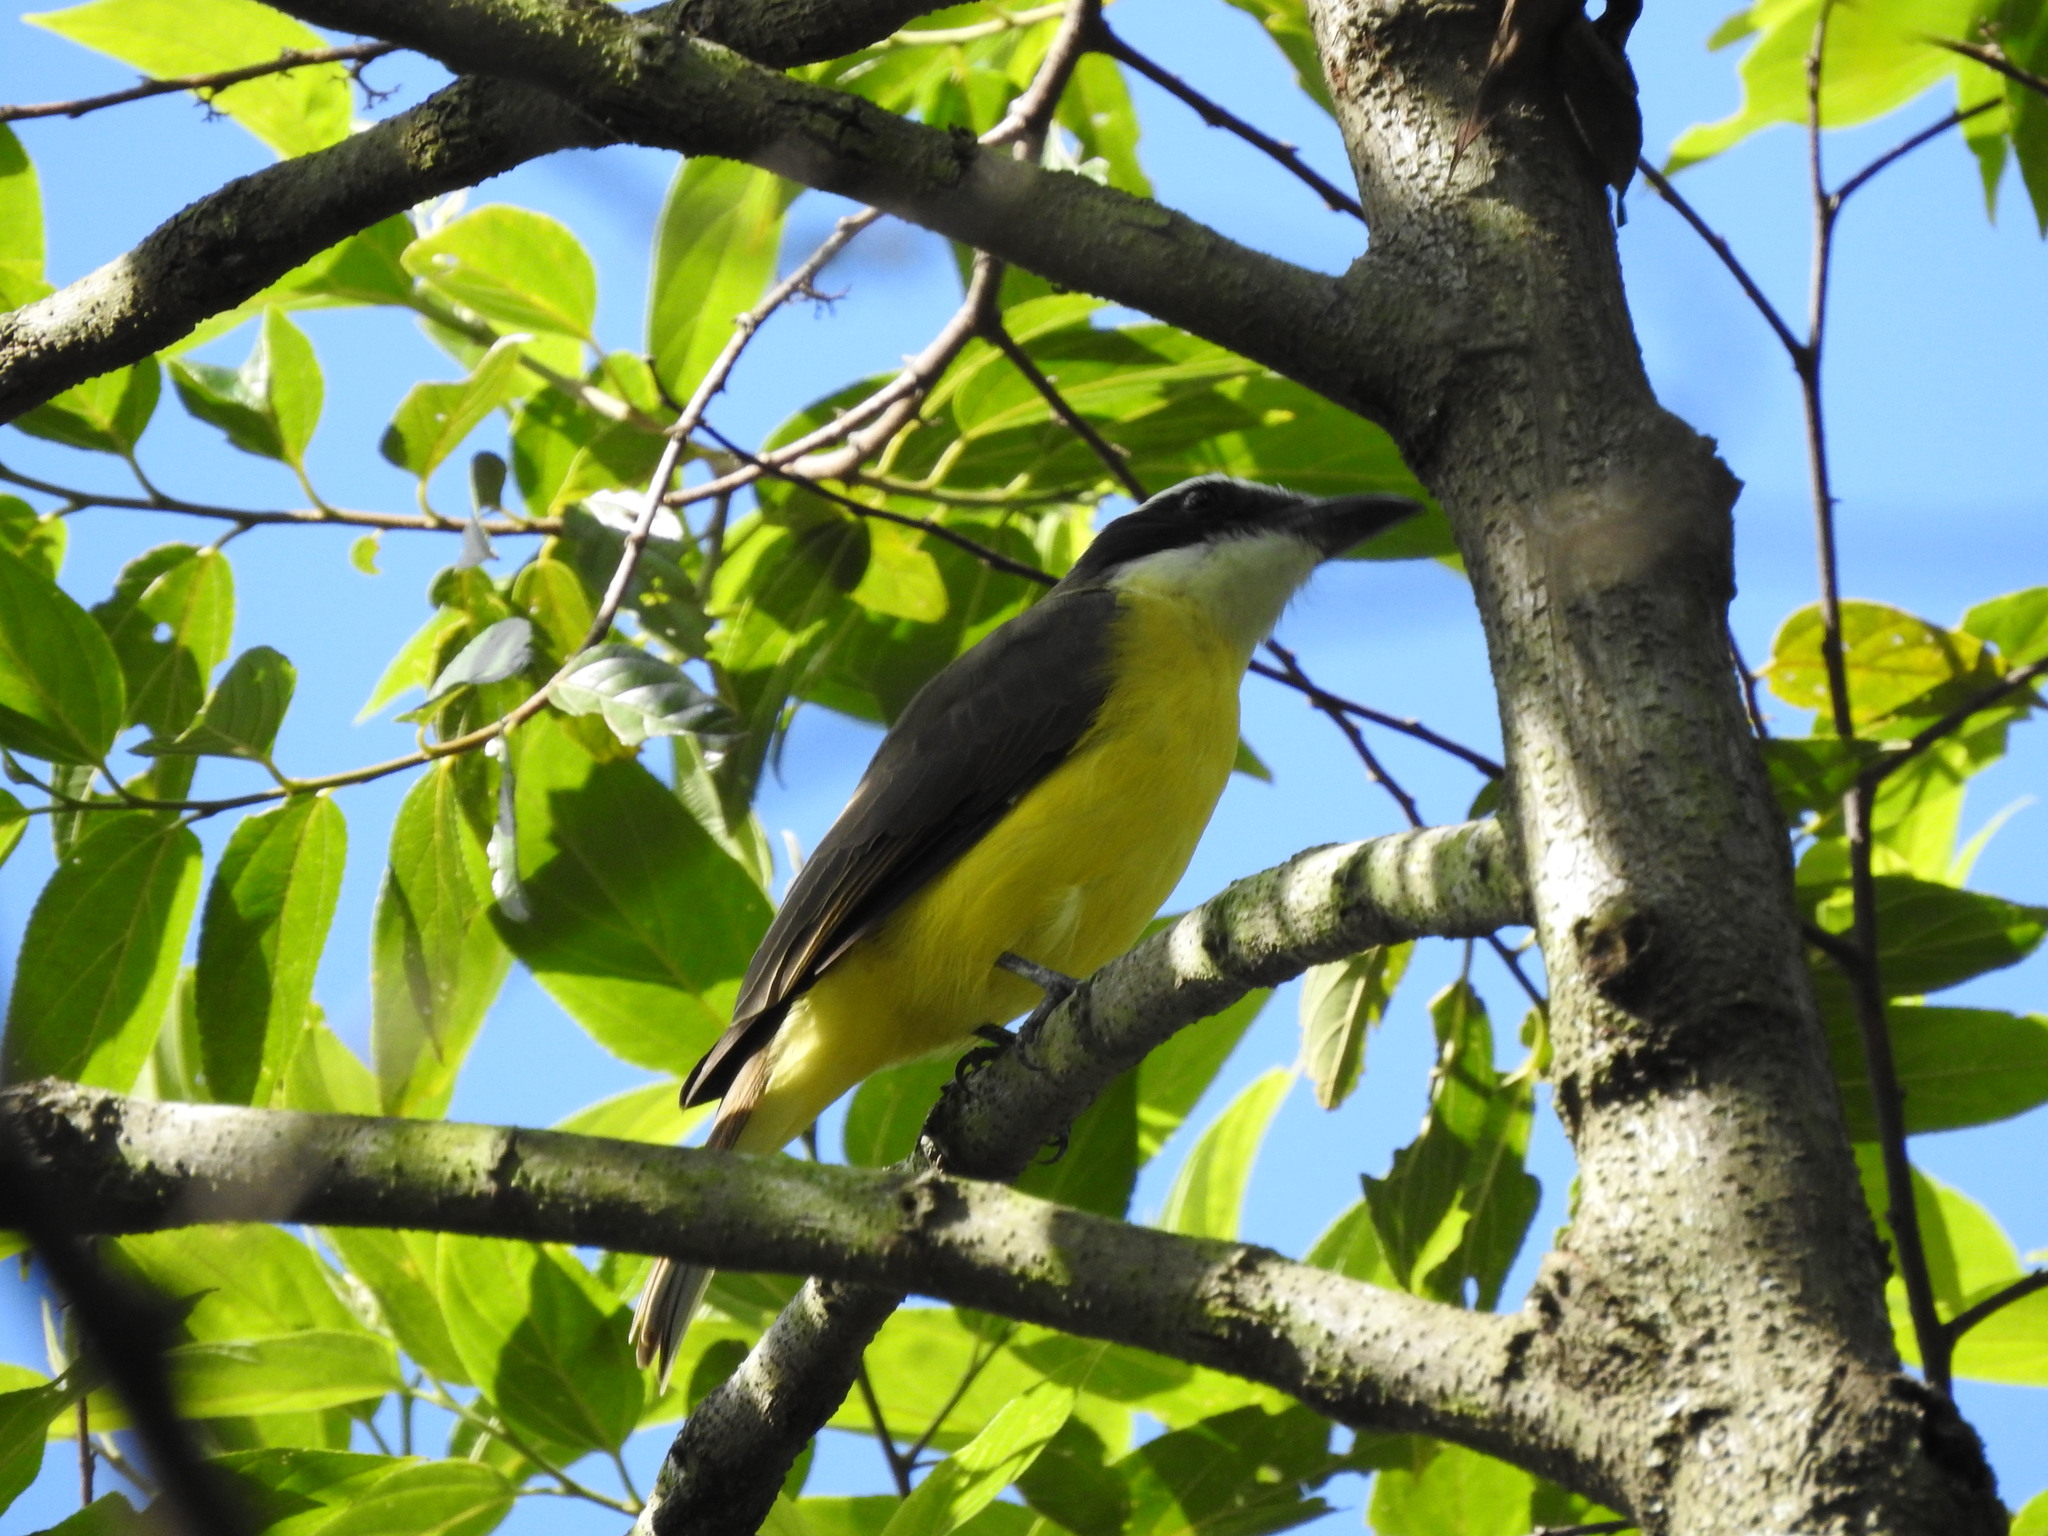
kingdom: Animalia
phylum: Chordata
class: Aves
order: Passeriformes
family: Tyrannidae
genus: Megarynchus
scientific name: Megarynchus pitangua
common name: Boat-billed flycatcher
